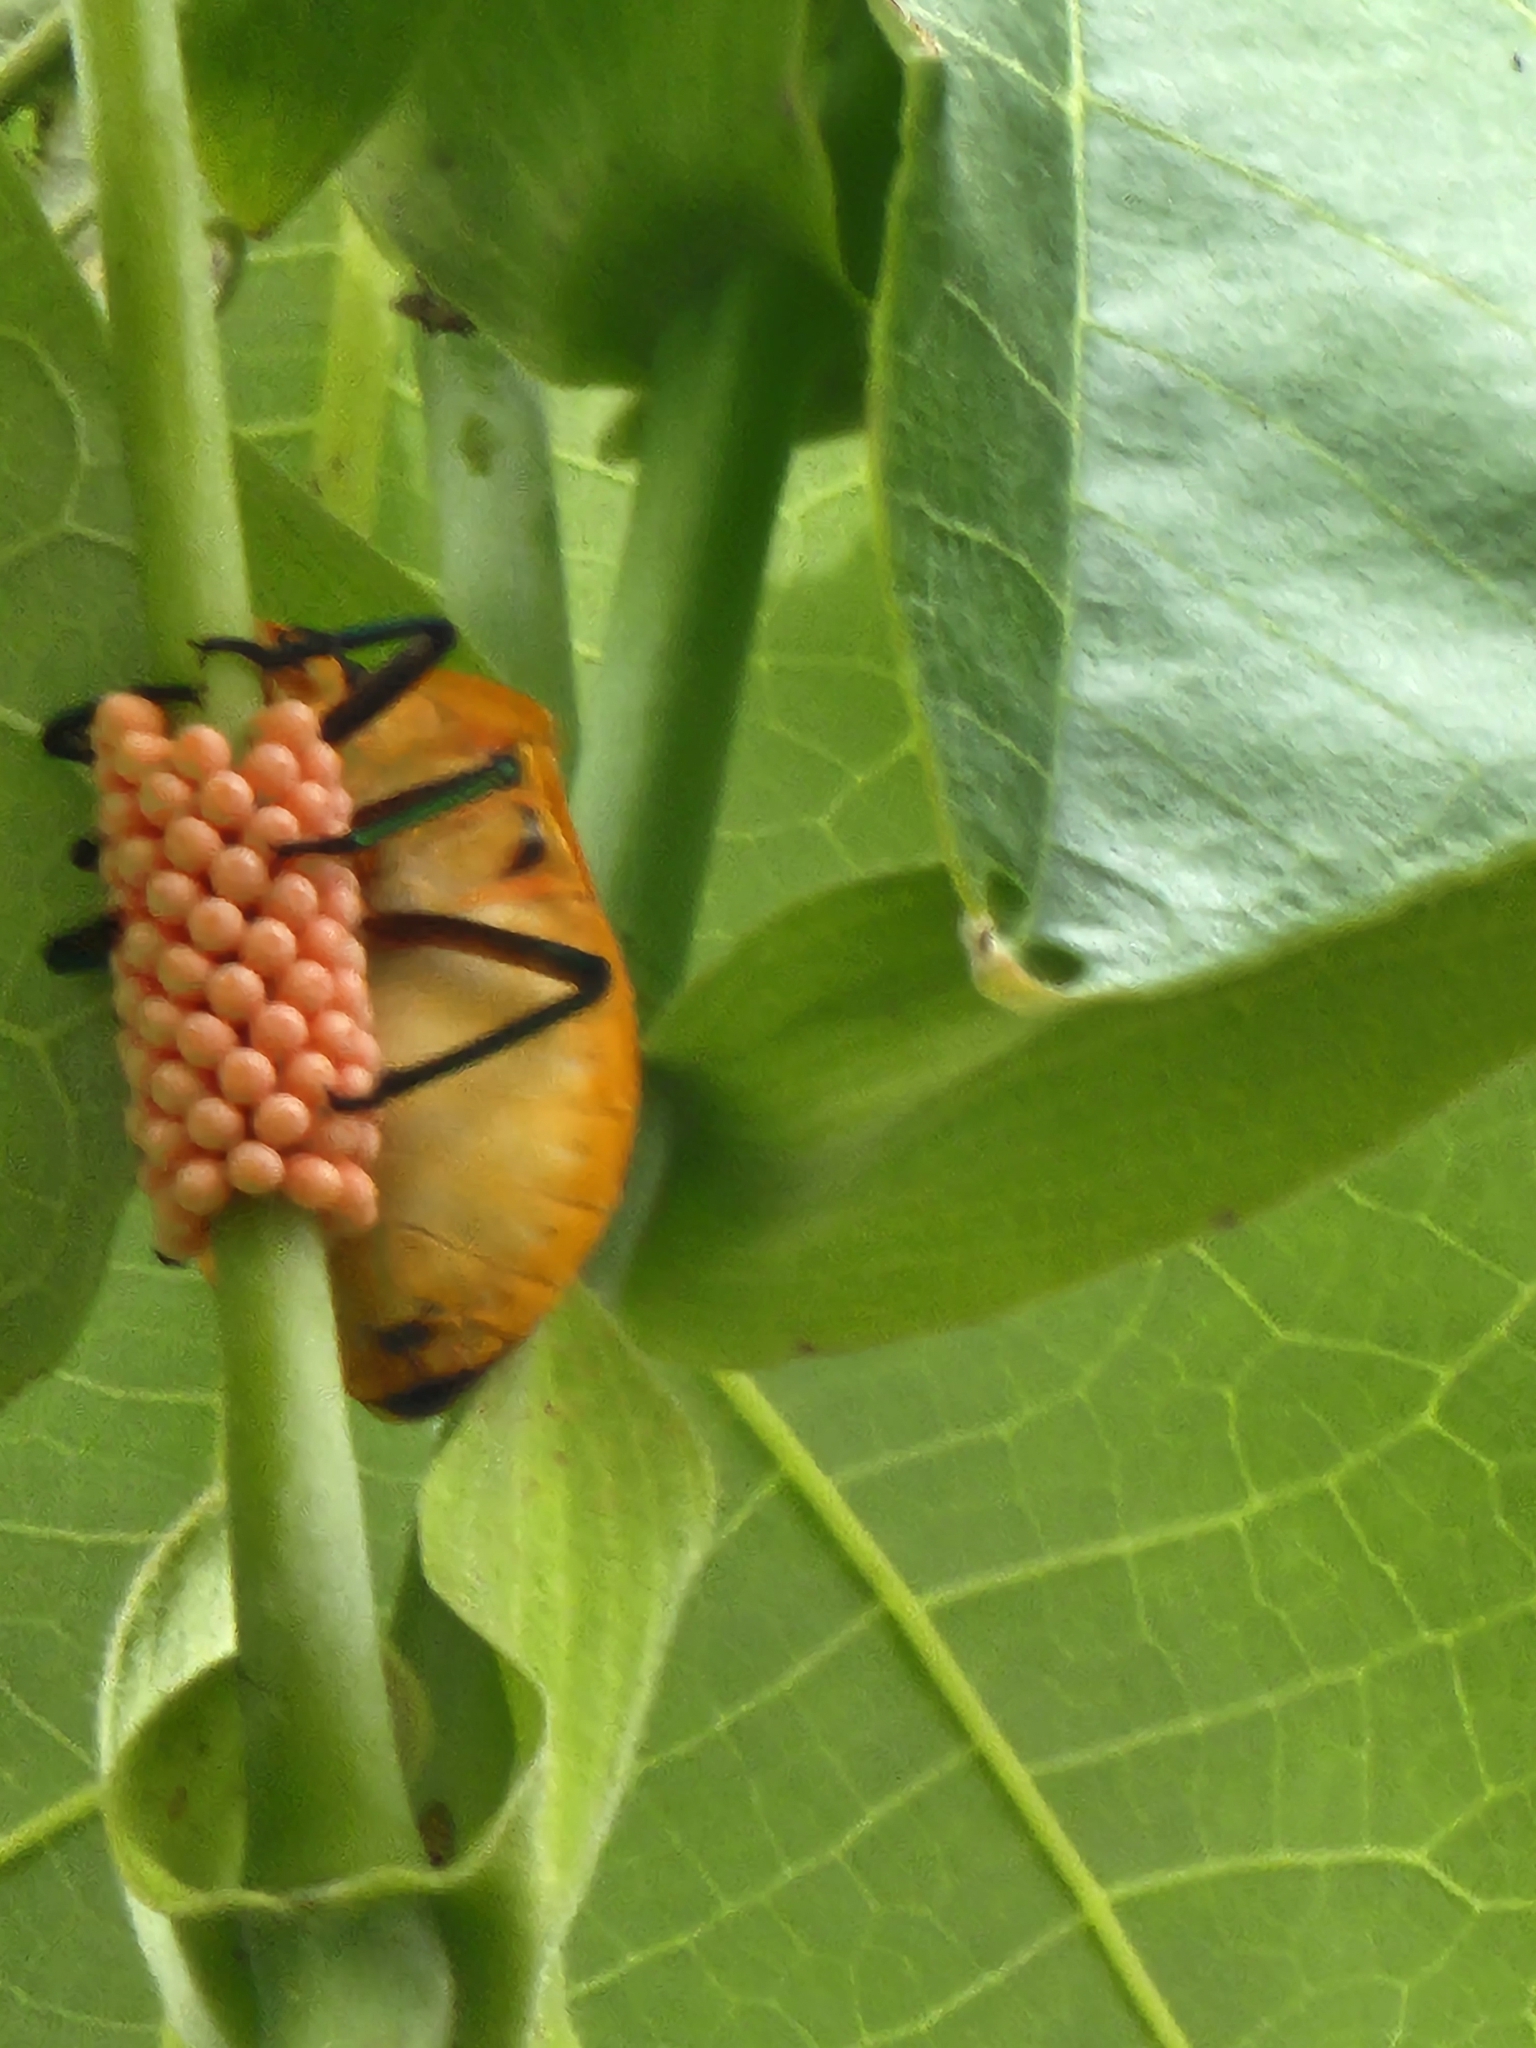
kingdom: Animalia
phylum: Arthropoda
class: Insecta
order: Hemiptera
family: Scutelleridae
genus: Tectocoris
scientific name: Tectocoris diophthalmus
